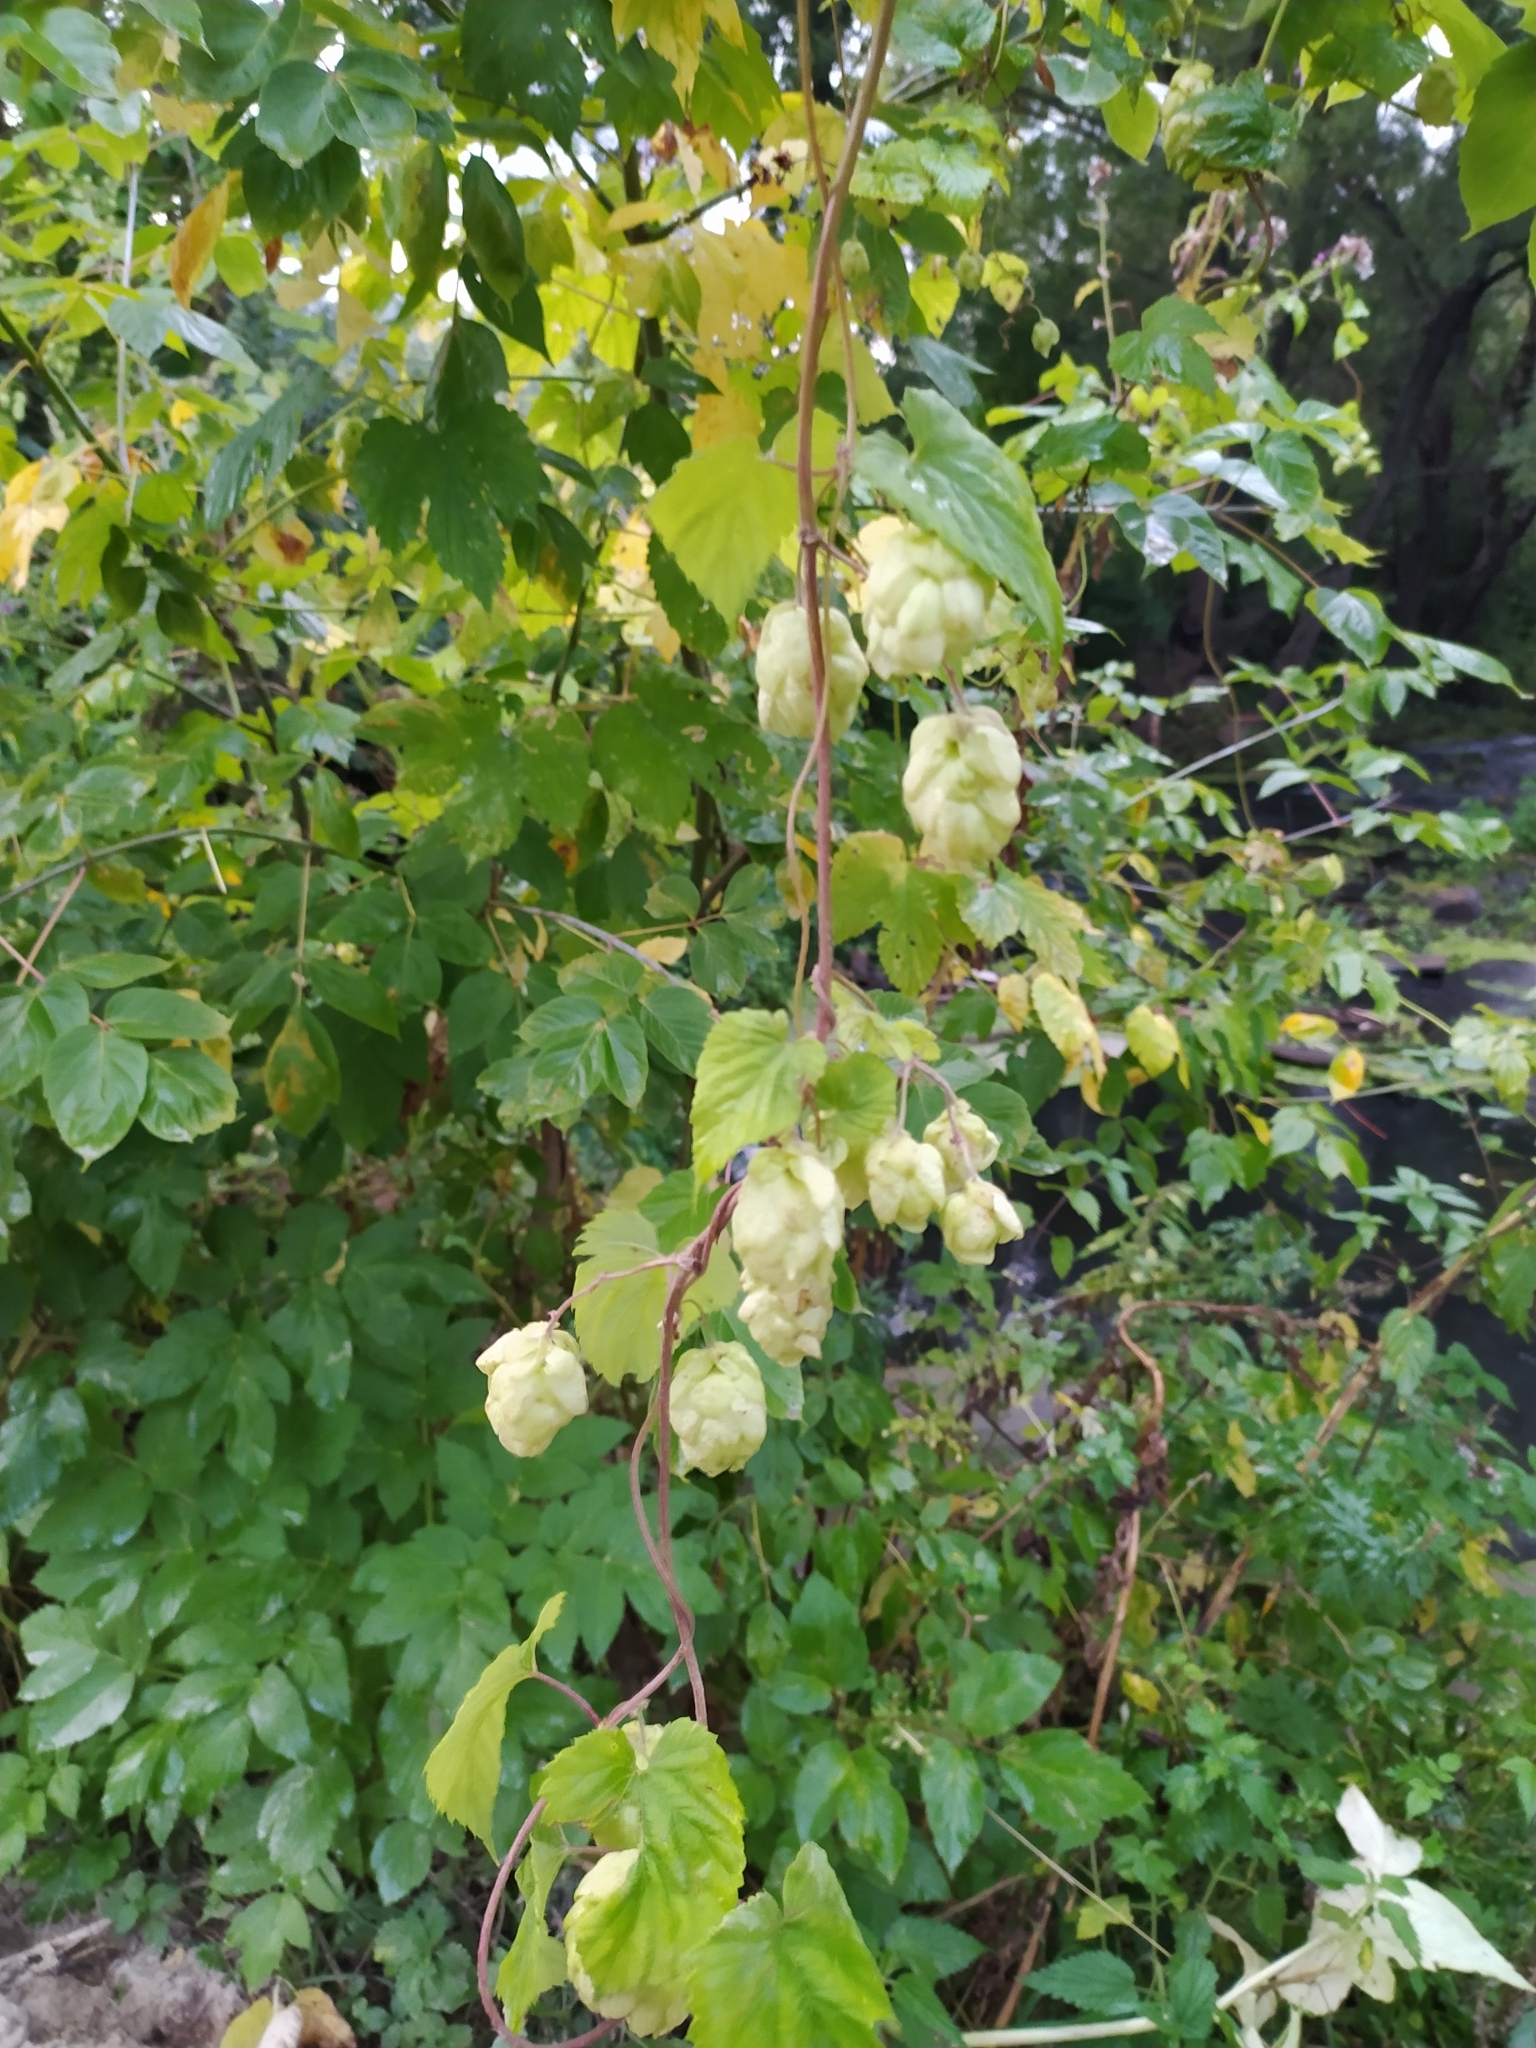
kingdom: Plantae
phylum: Tracheophyta
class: Magnoliopsida
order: Rosales
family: Cannabaceae
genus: Humulus
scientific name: Humulus lupulus
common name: Hop
